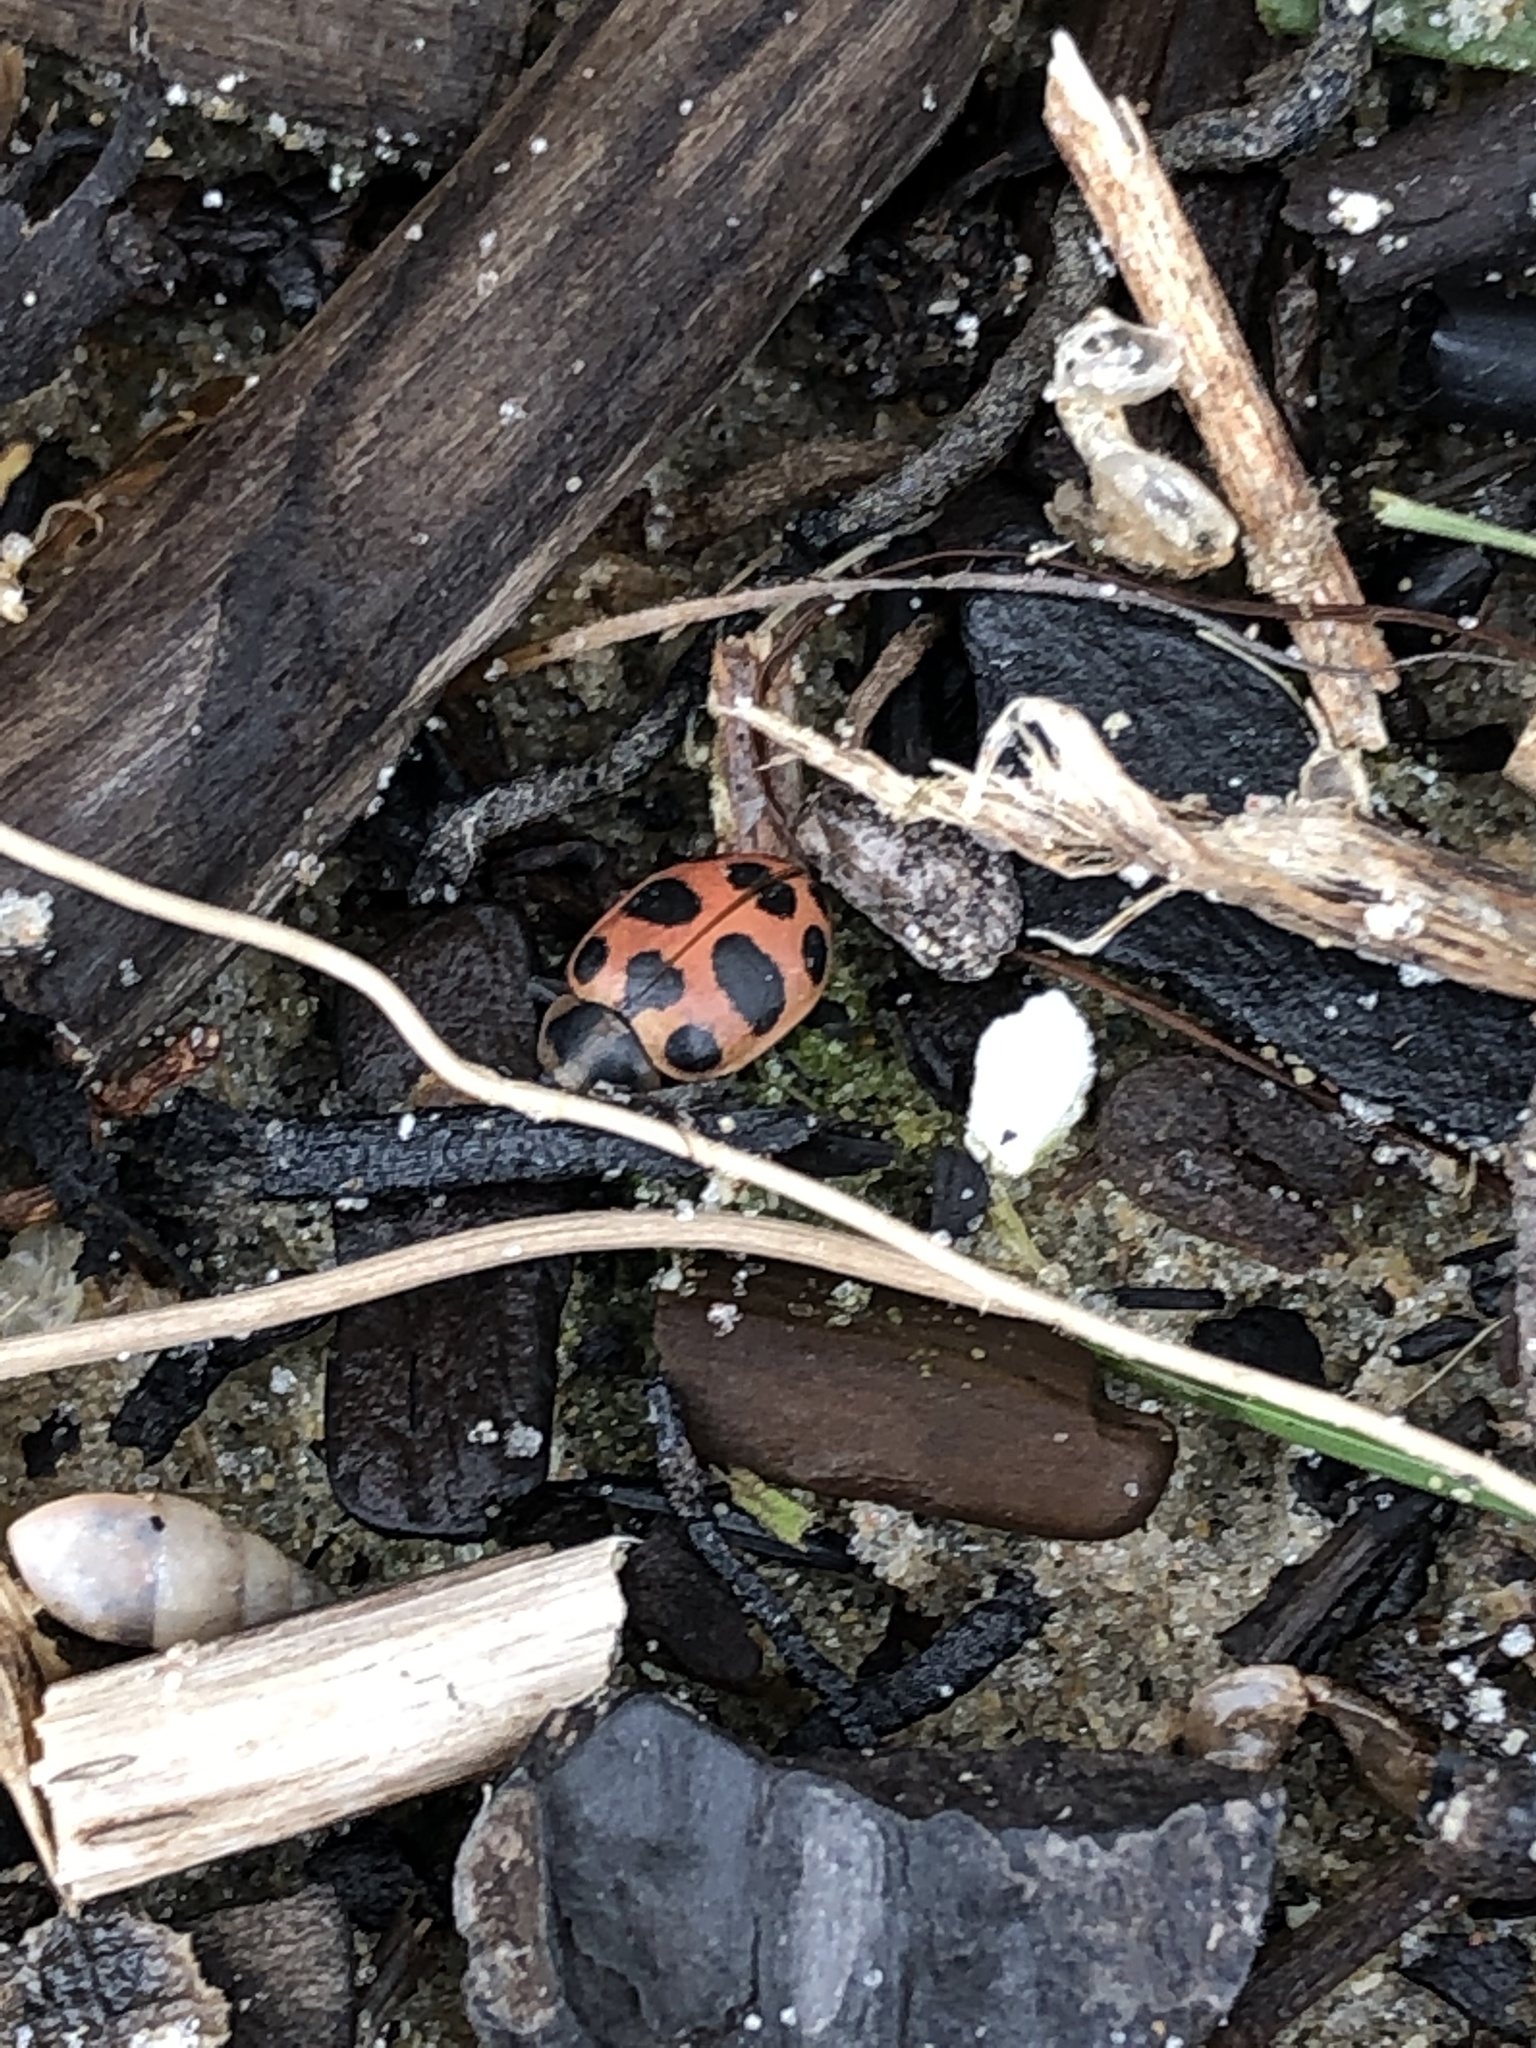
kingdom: Animalia
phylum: Arthropoda
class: Insecta
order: Coleoptera
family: Coccinellidae
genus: Coleomegilla
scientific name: Coleomegilla maculata
